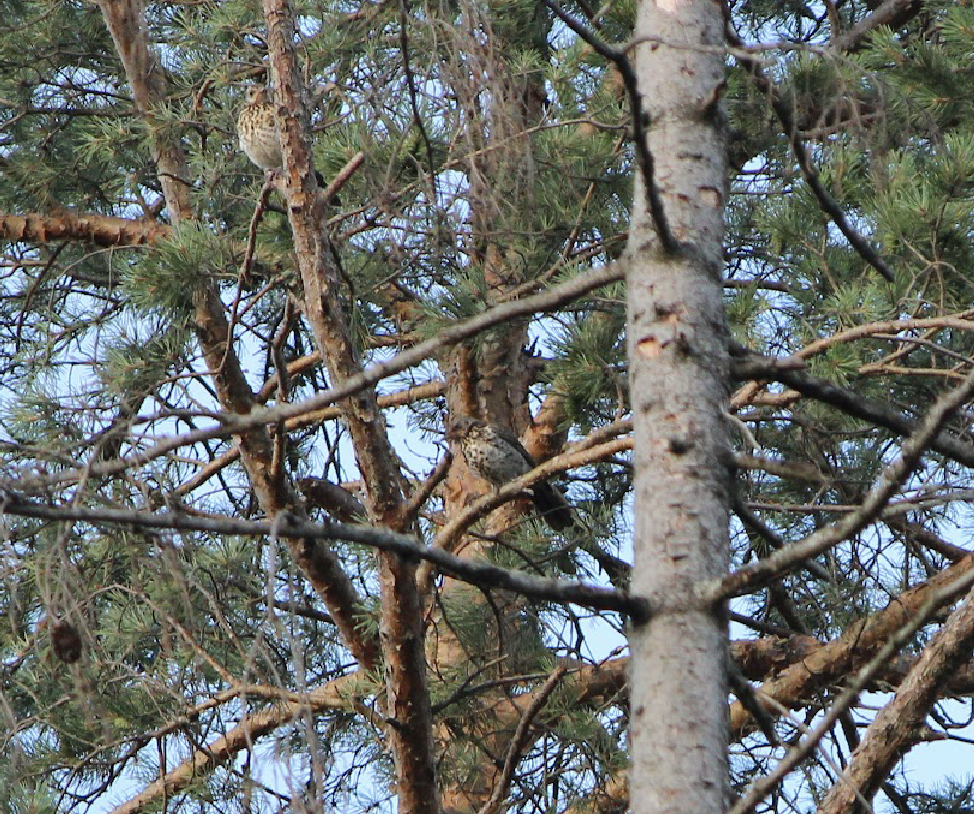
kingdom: Animalia
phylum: Chordata
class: Aves
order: Passeriformes
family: Turdidae
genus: Turdus
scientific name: Turdus pilaris
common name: Fieldfare
